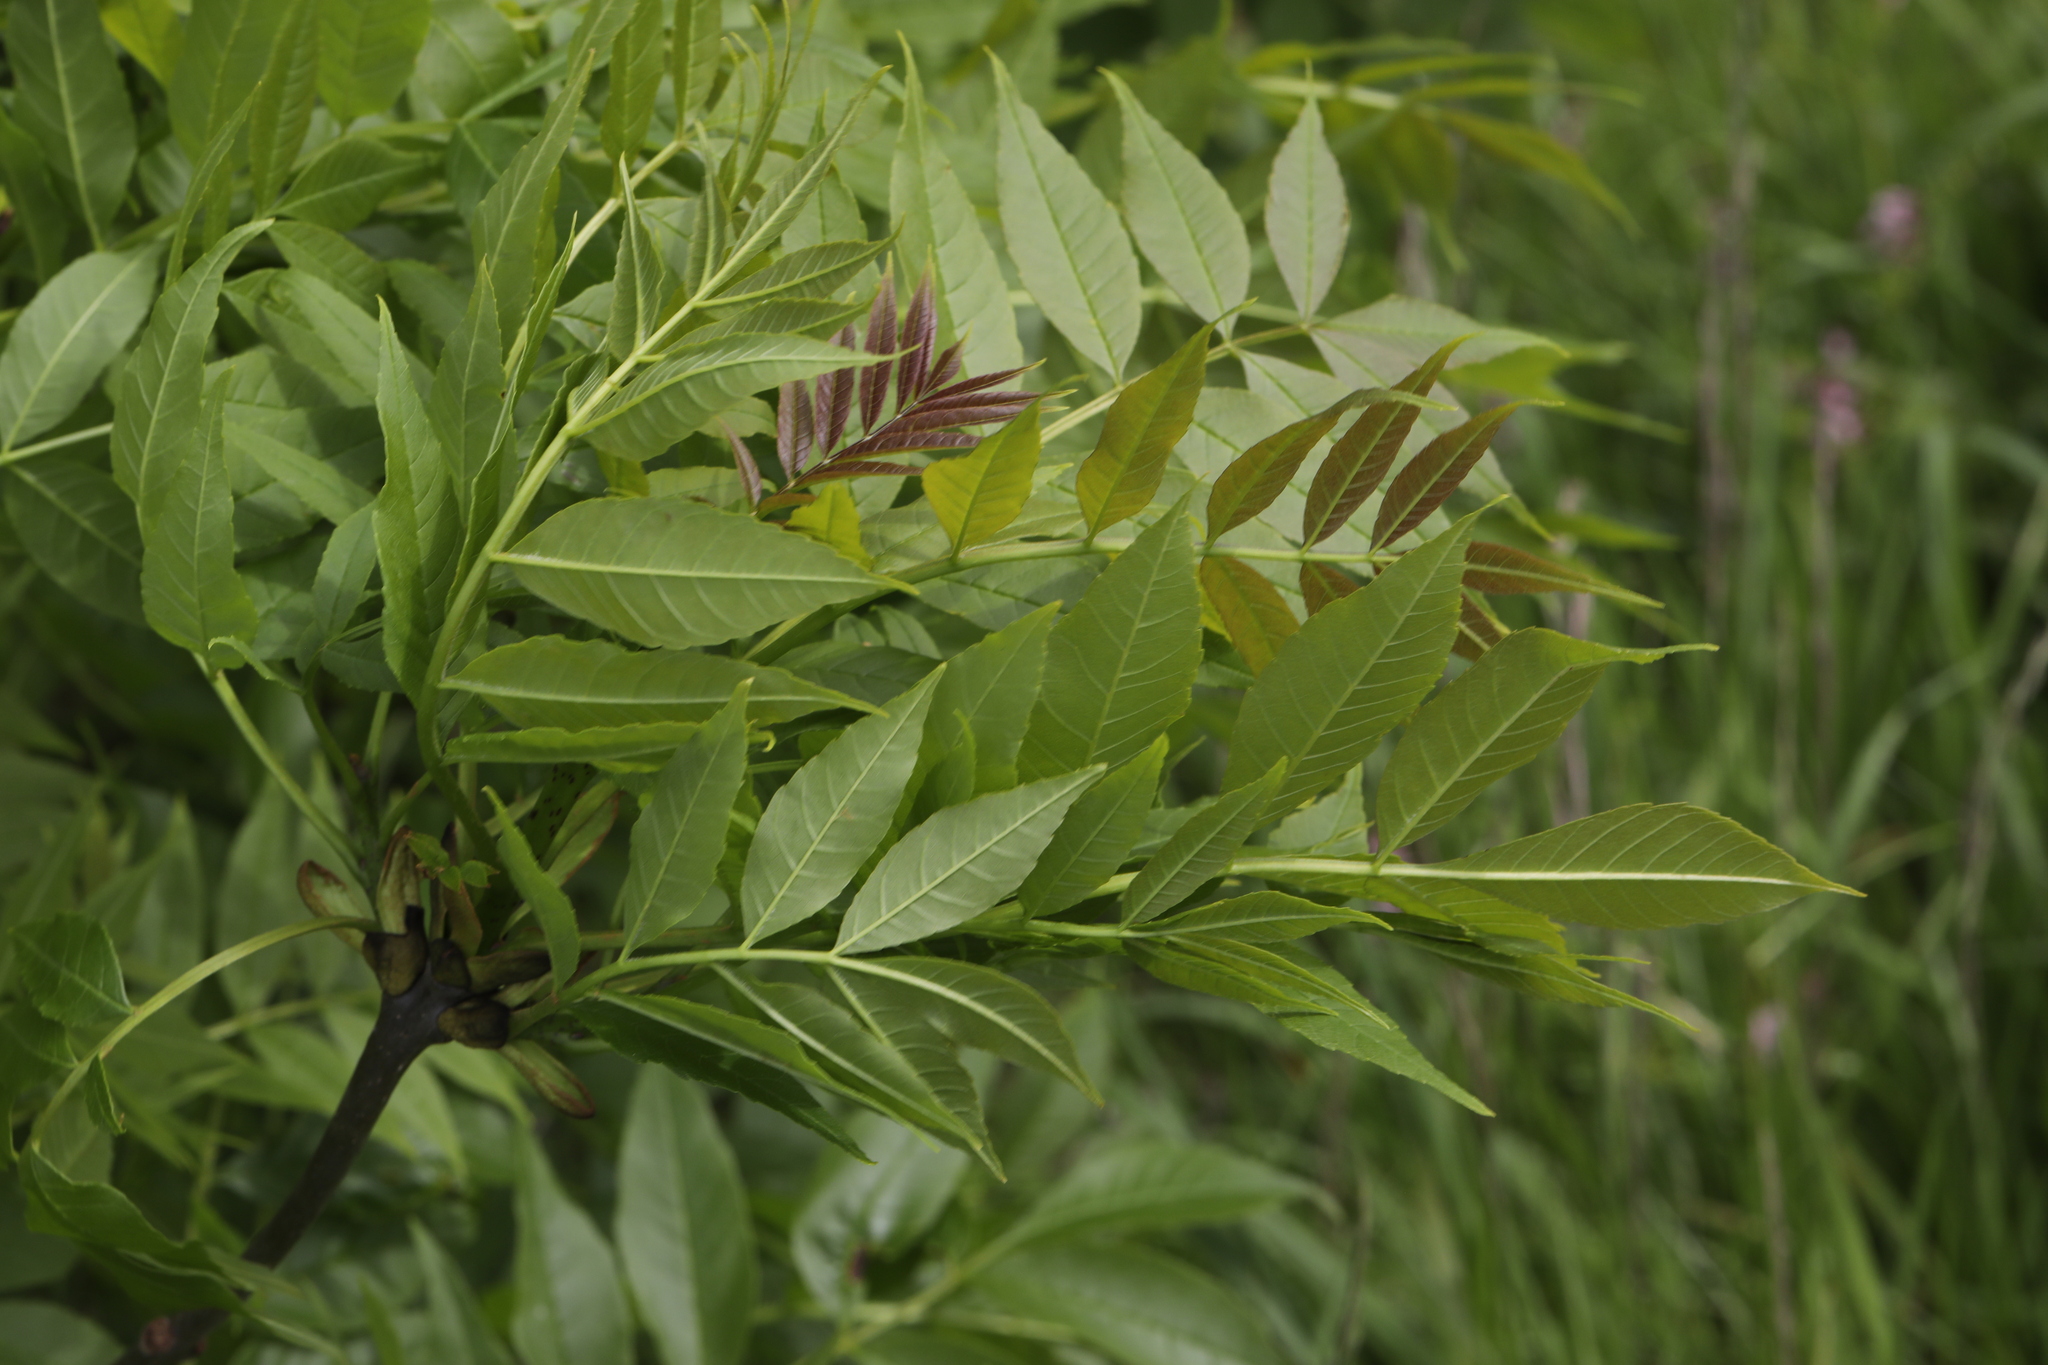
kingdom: Plantae
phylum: Tracheophyta
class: Magnoliopsida
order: Lamiales
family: Oleaceae
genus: Fraxinus
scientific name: Fraxinus excelsior
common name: European ash
